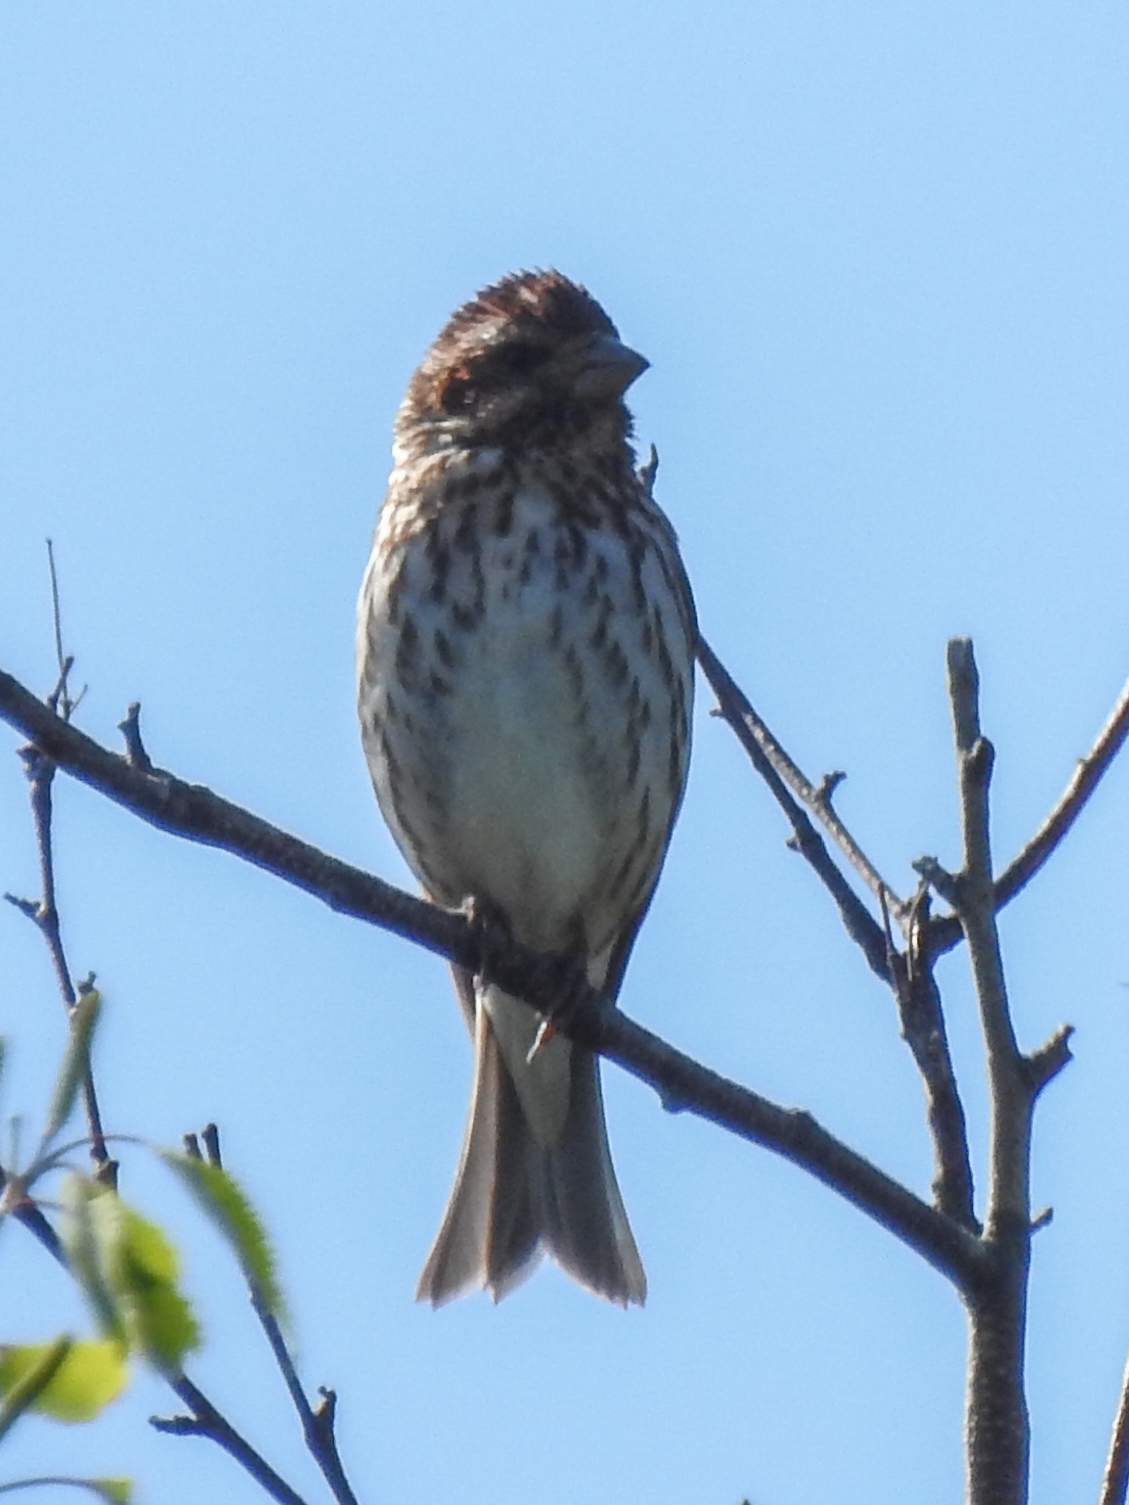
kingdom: Animalia
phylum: Chordata
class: Aves
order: Passeriformes
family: Fringillidae
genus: Haemorhous
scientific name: Haemorhous purpureus
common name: Purple finch
